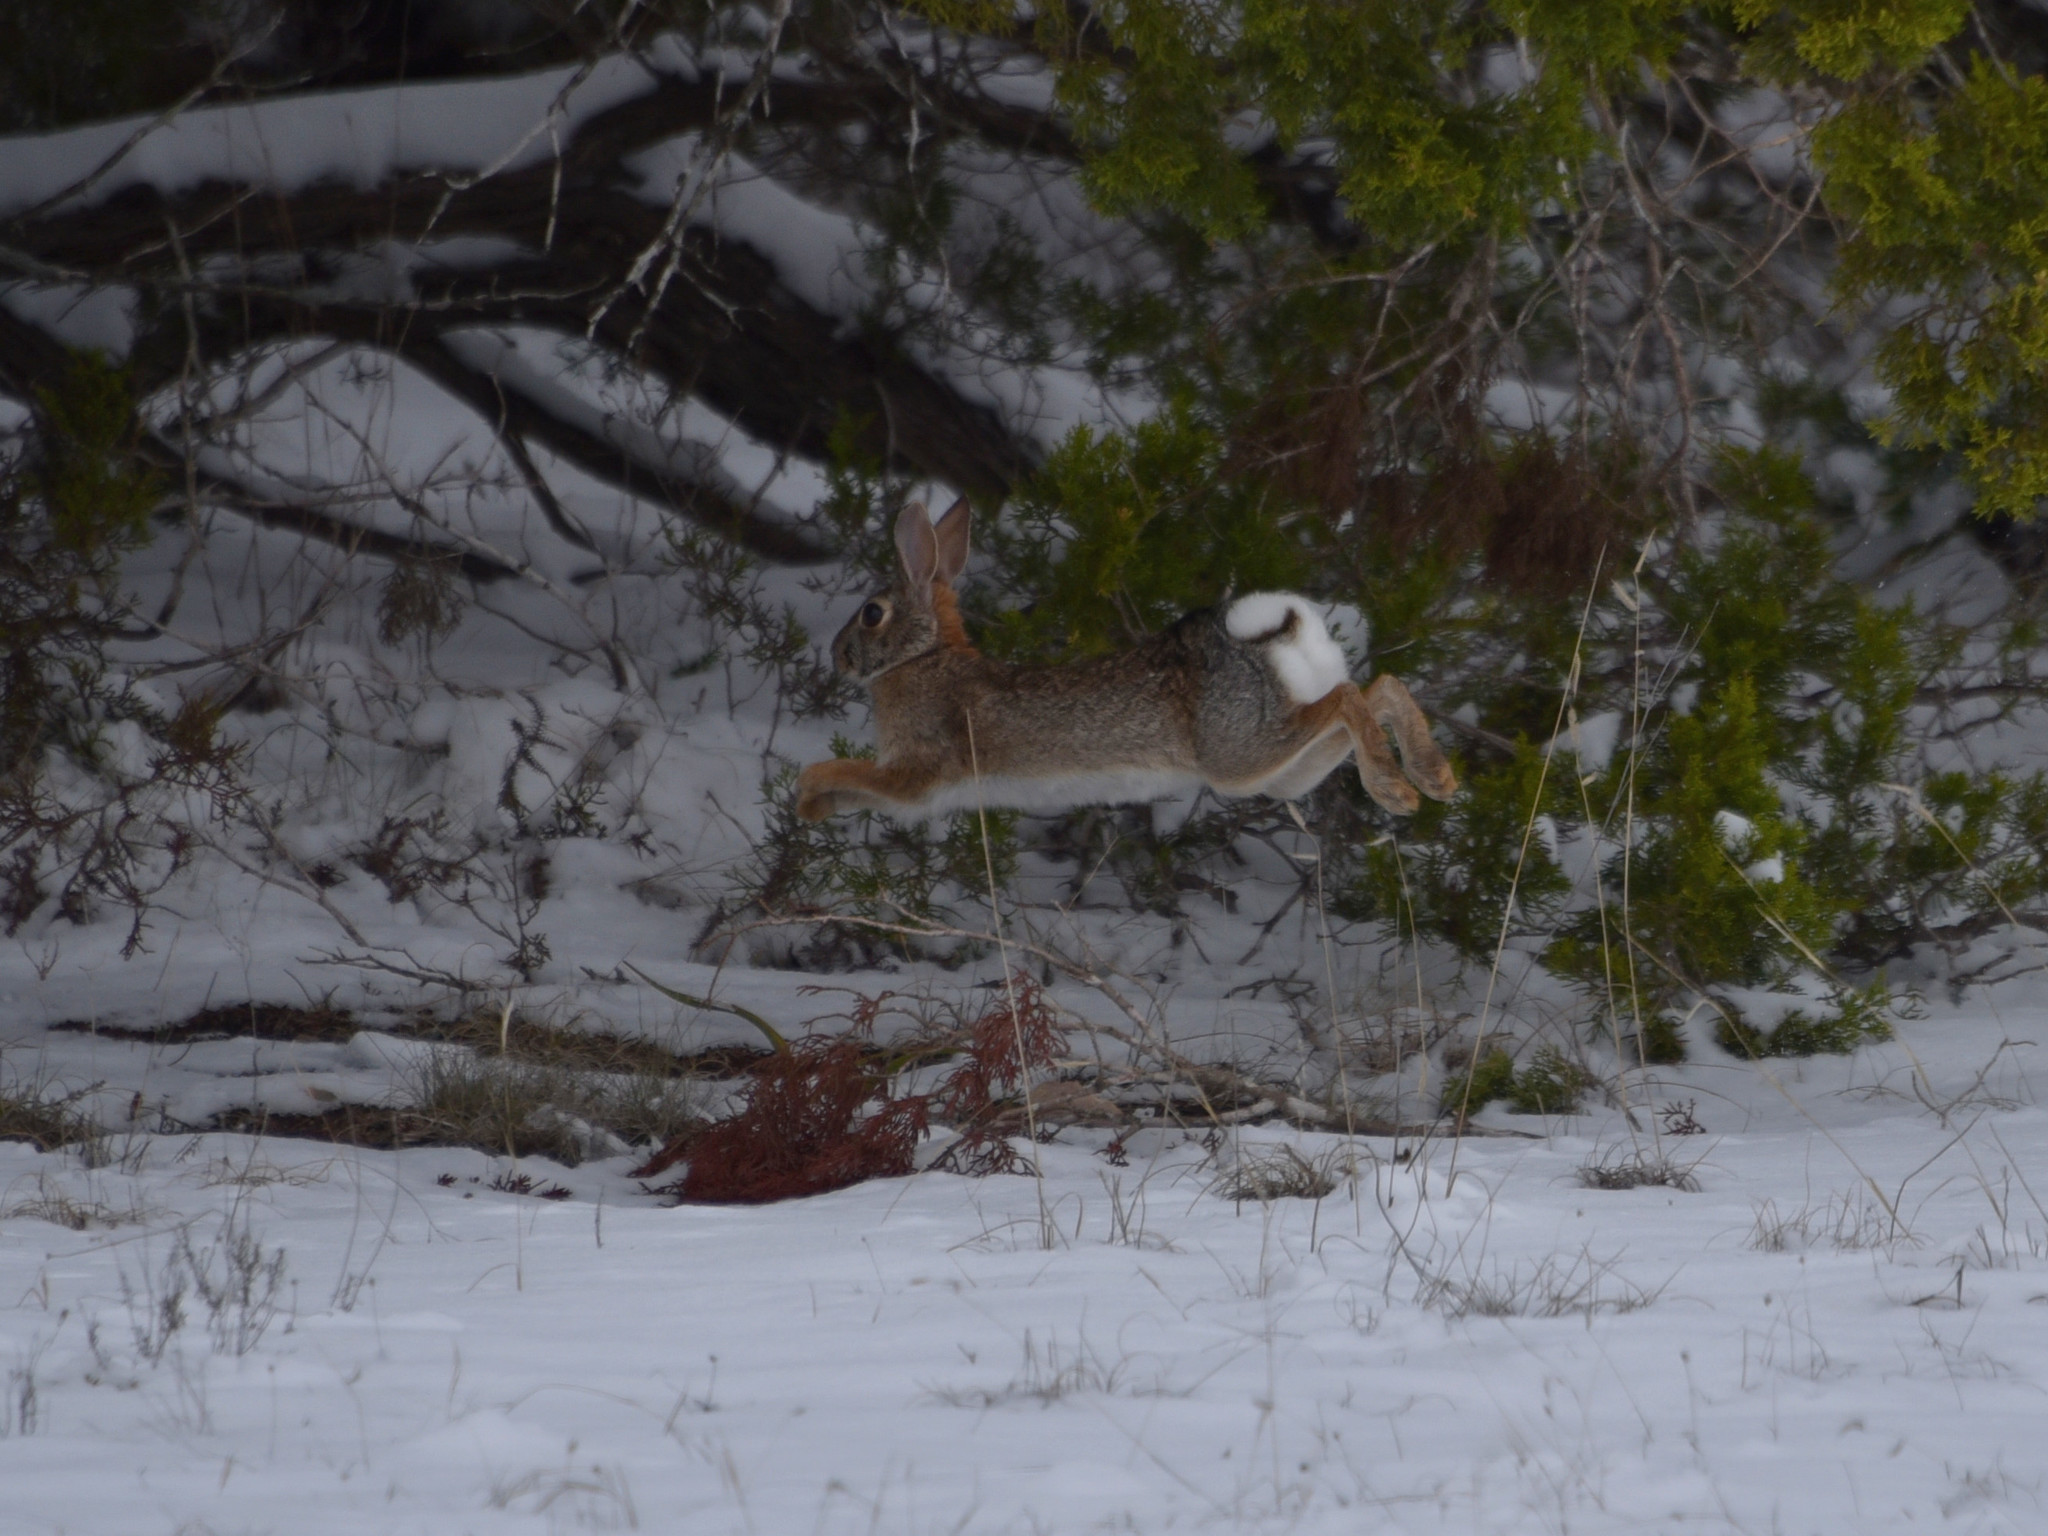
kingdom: Animalia
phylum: Chordata
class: Mammalia
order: Lagomorpha
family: Leporidae
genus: Sylvilagus
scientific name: Sylvilagus floridanus
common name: Eastern cottontail
